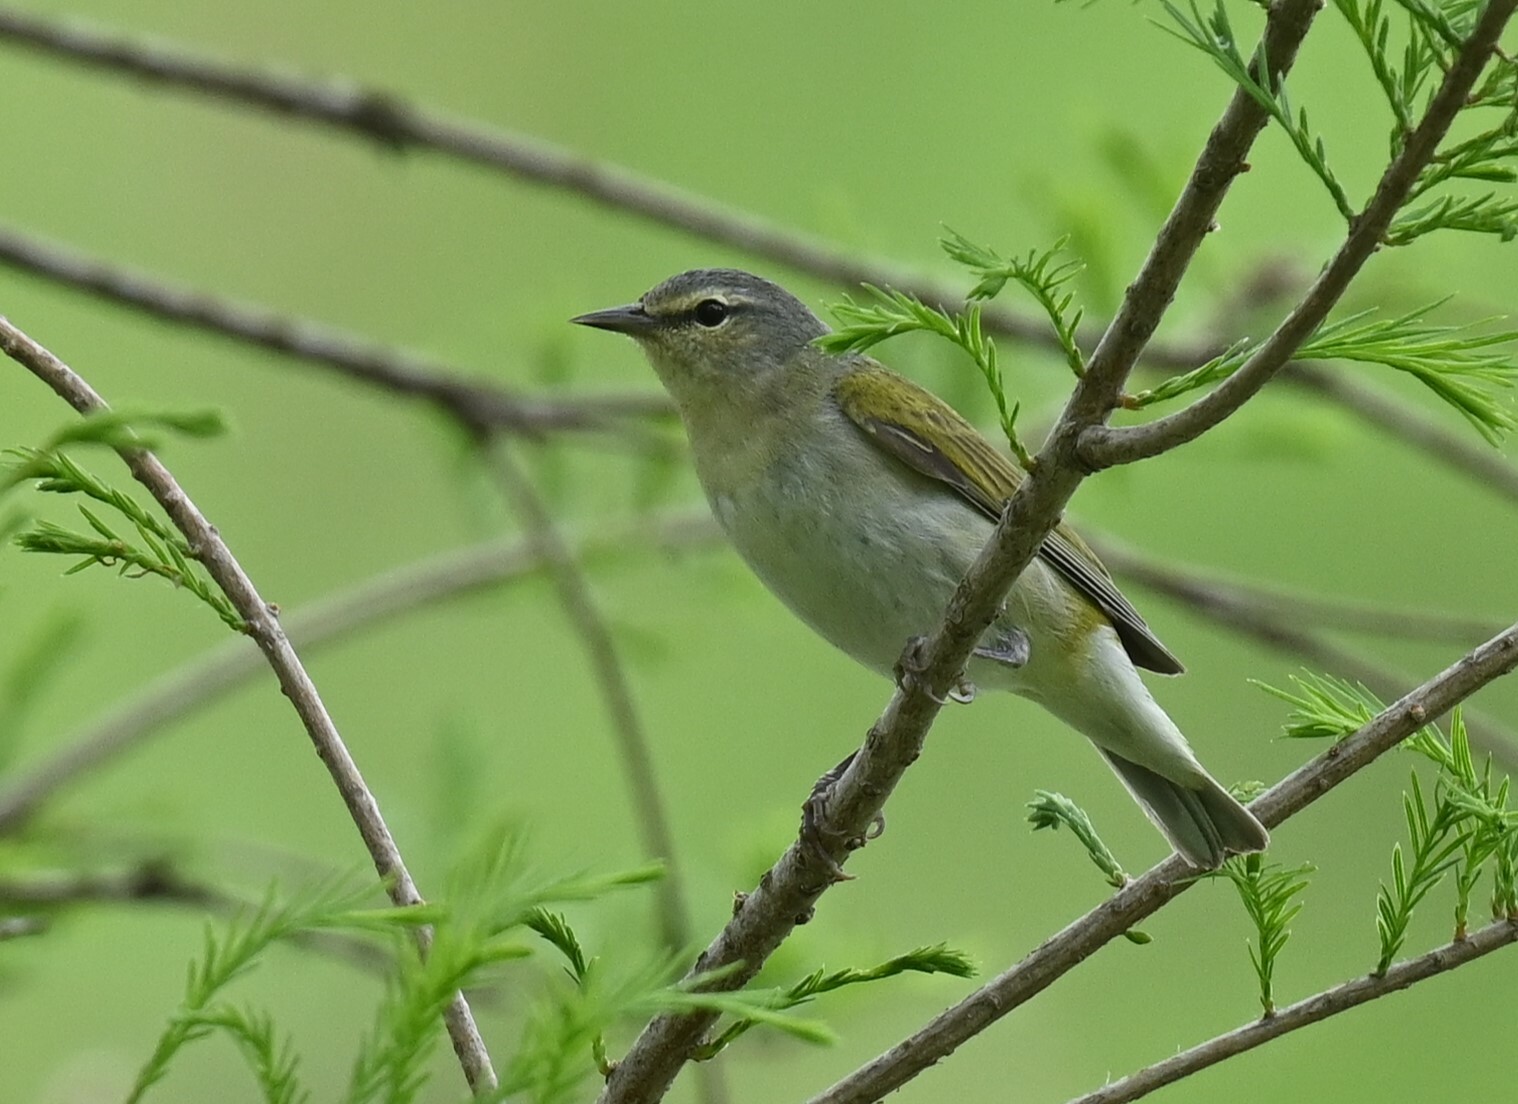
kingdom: Animalia
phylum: Chordata
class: Aves
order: Passeriformes
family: Parulidae
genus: Leiothlypis
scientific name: Leiothlypis peregrina
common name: Tennessee warbler
